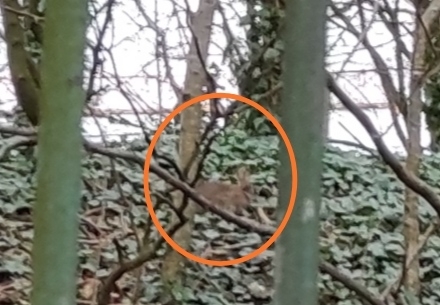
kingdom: Animalia
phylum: Chordata
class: Mammalia
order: Lagomorpha
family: Leporidae
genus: Oryctolagus
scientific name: Oryctolagus cuniculus
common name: European rabbit
